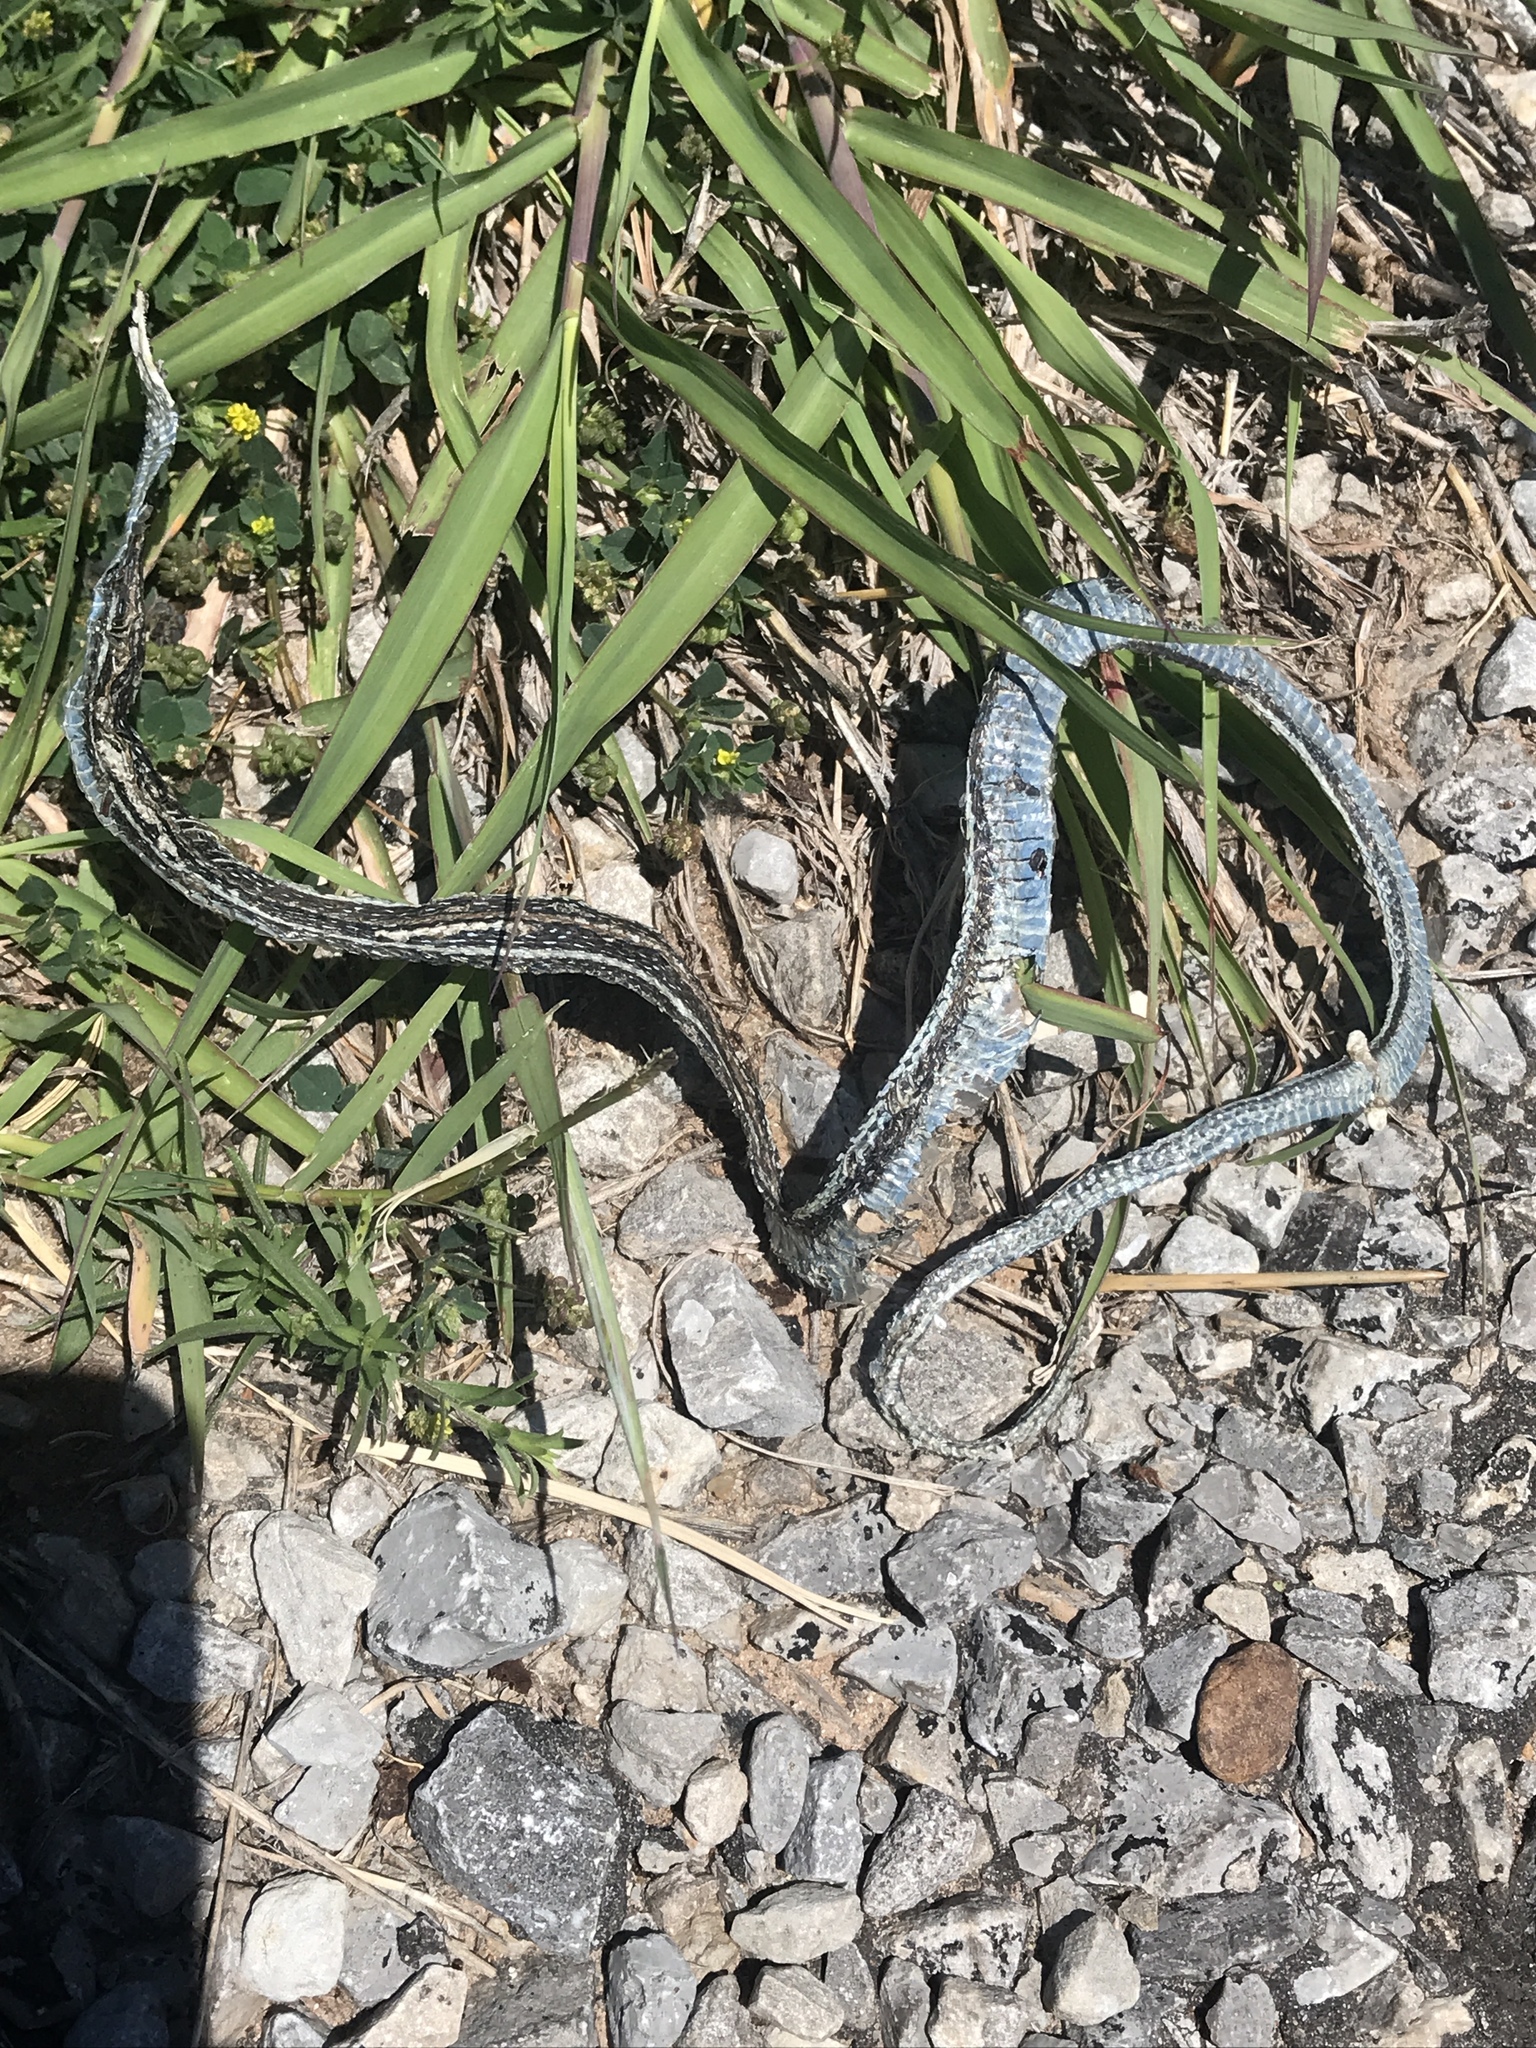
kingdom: Animalia
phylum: Chordata
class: Squamata
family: Colubridae
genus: Thamnophis
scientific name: Thamnophis proximus
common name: Western ribbon snake
